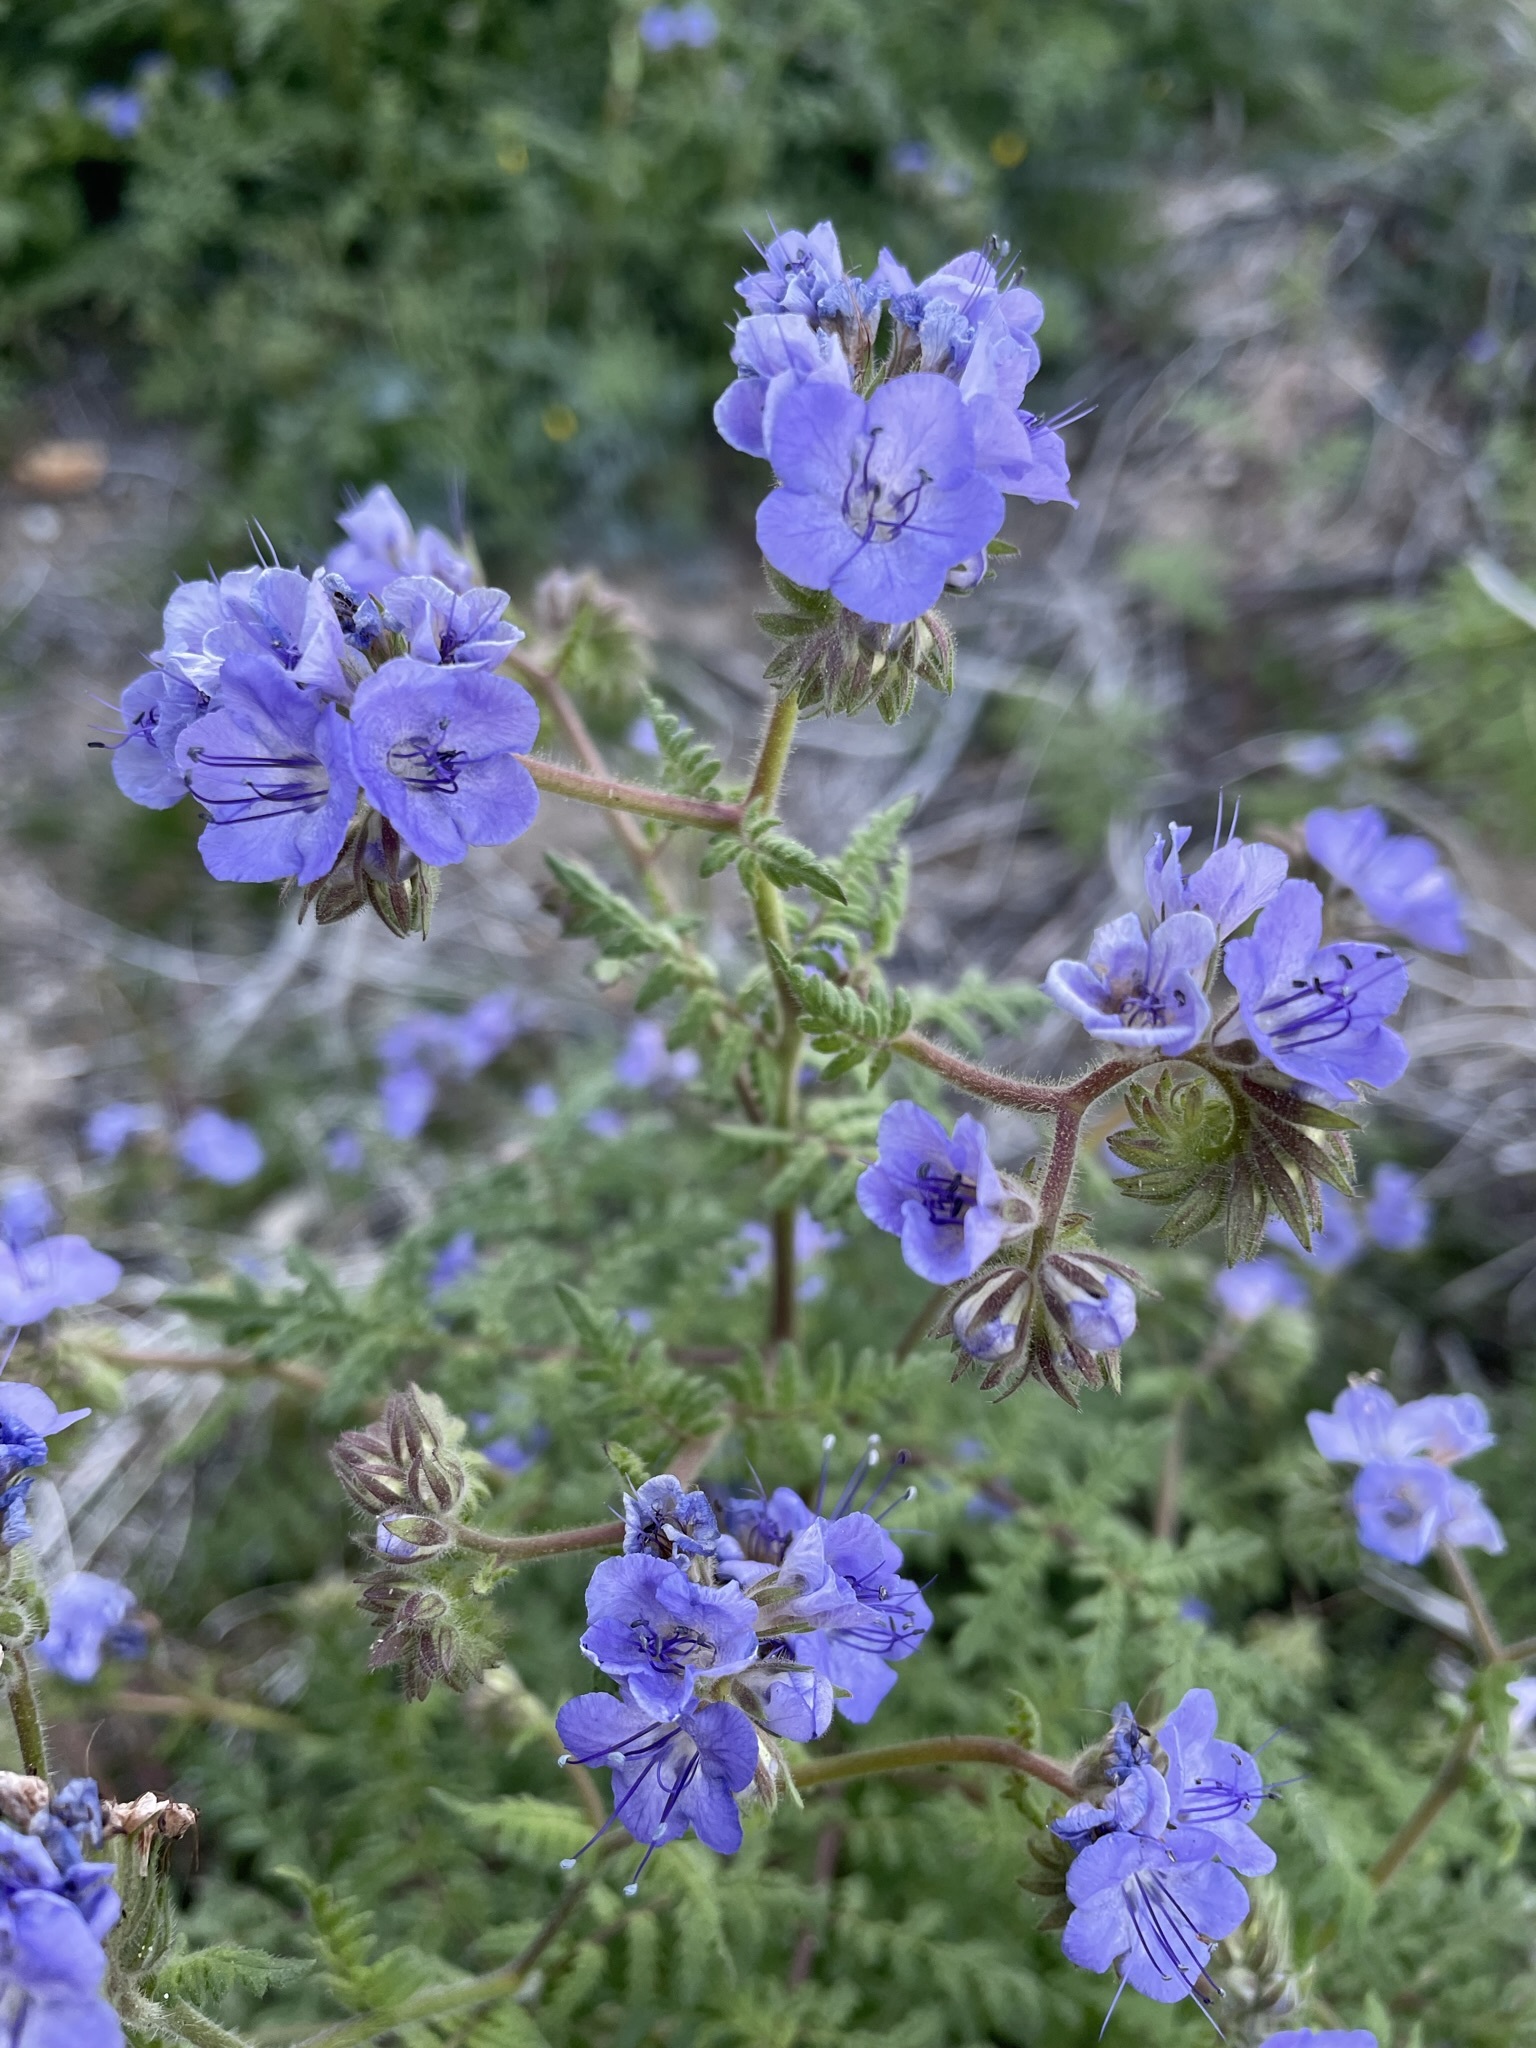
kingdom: Plantae
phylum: Tracheophyta
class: Magnoliopsida
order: Boraginales
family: Hydrophyllaceae
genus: Phacelia
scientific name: Phacelia distans
